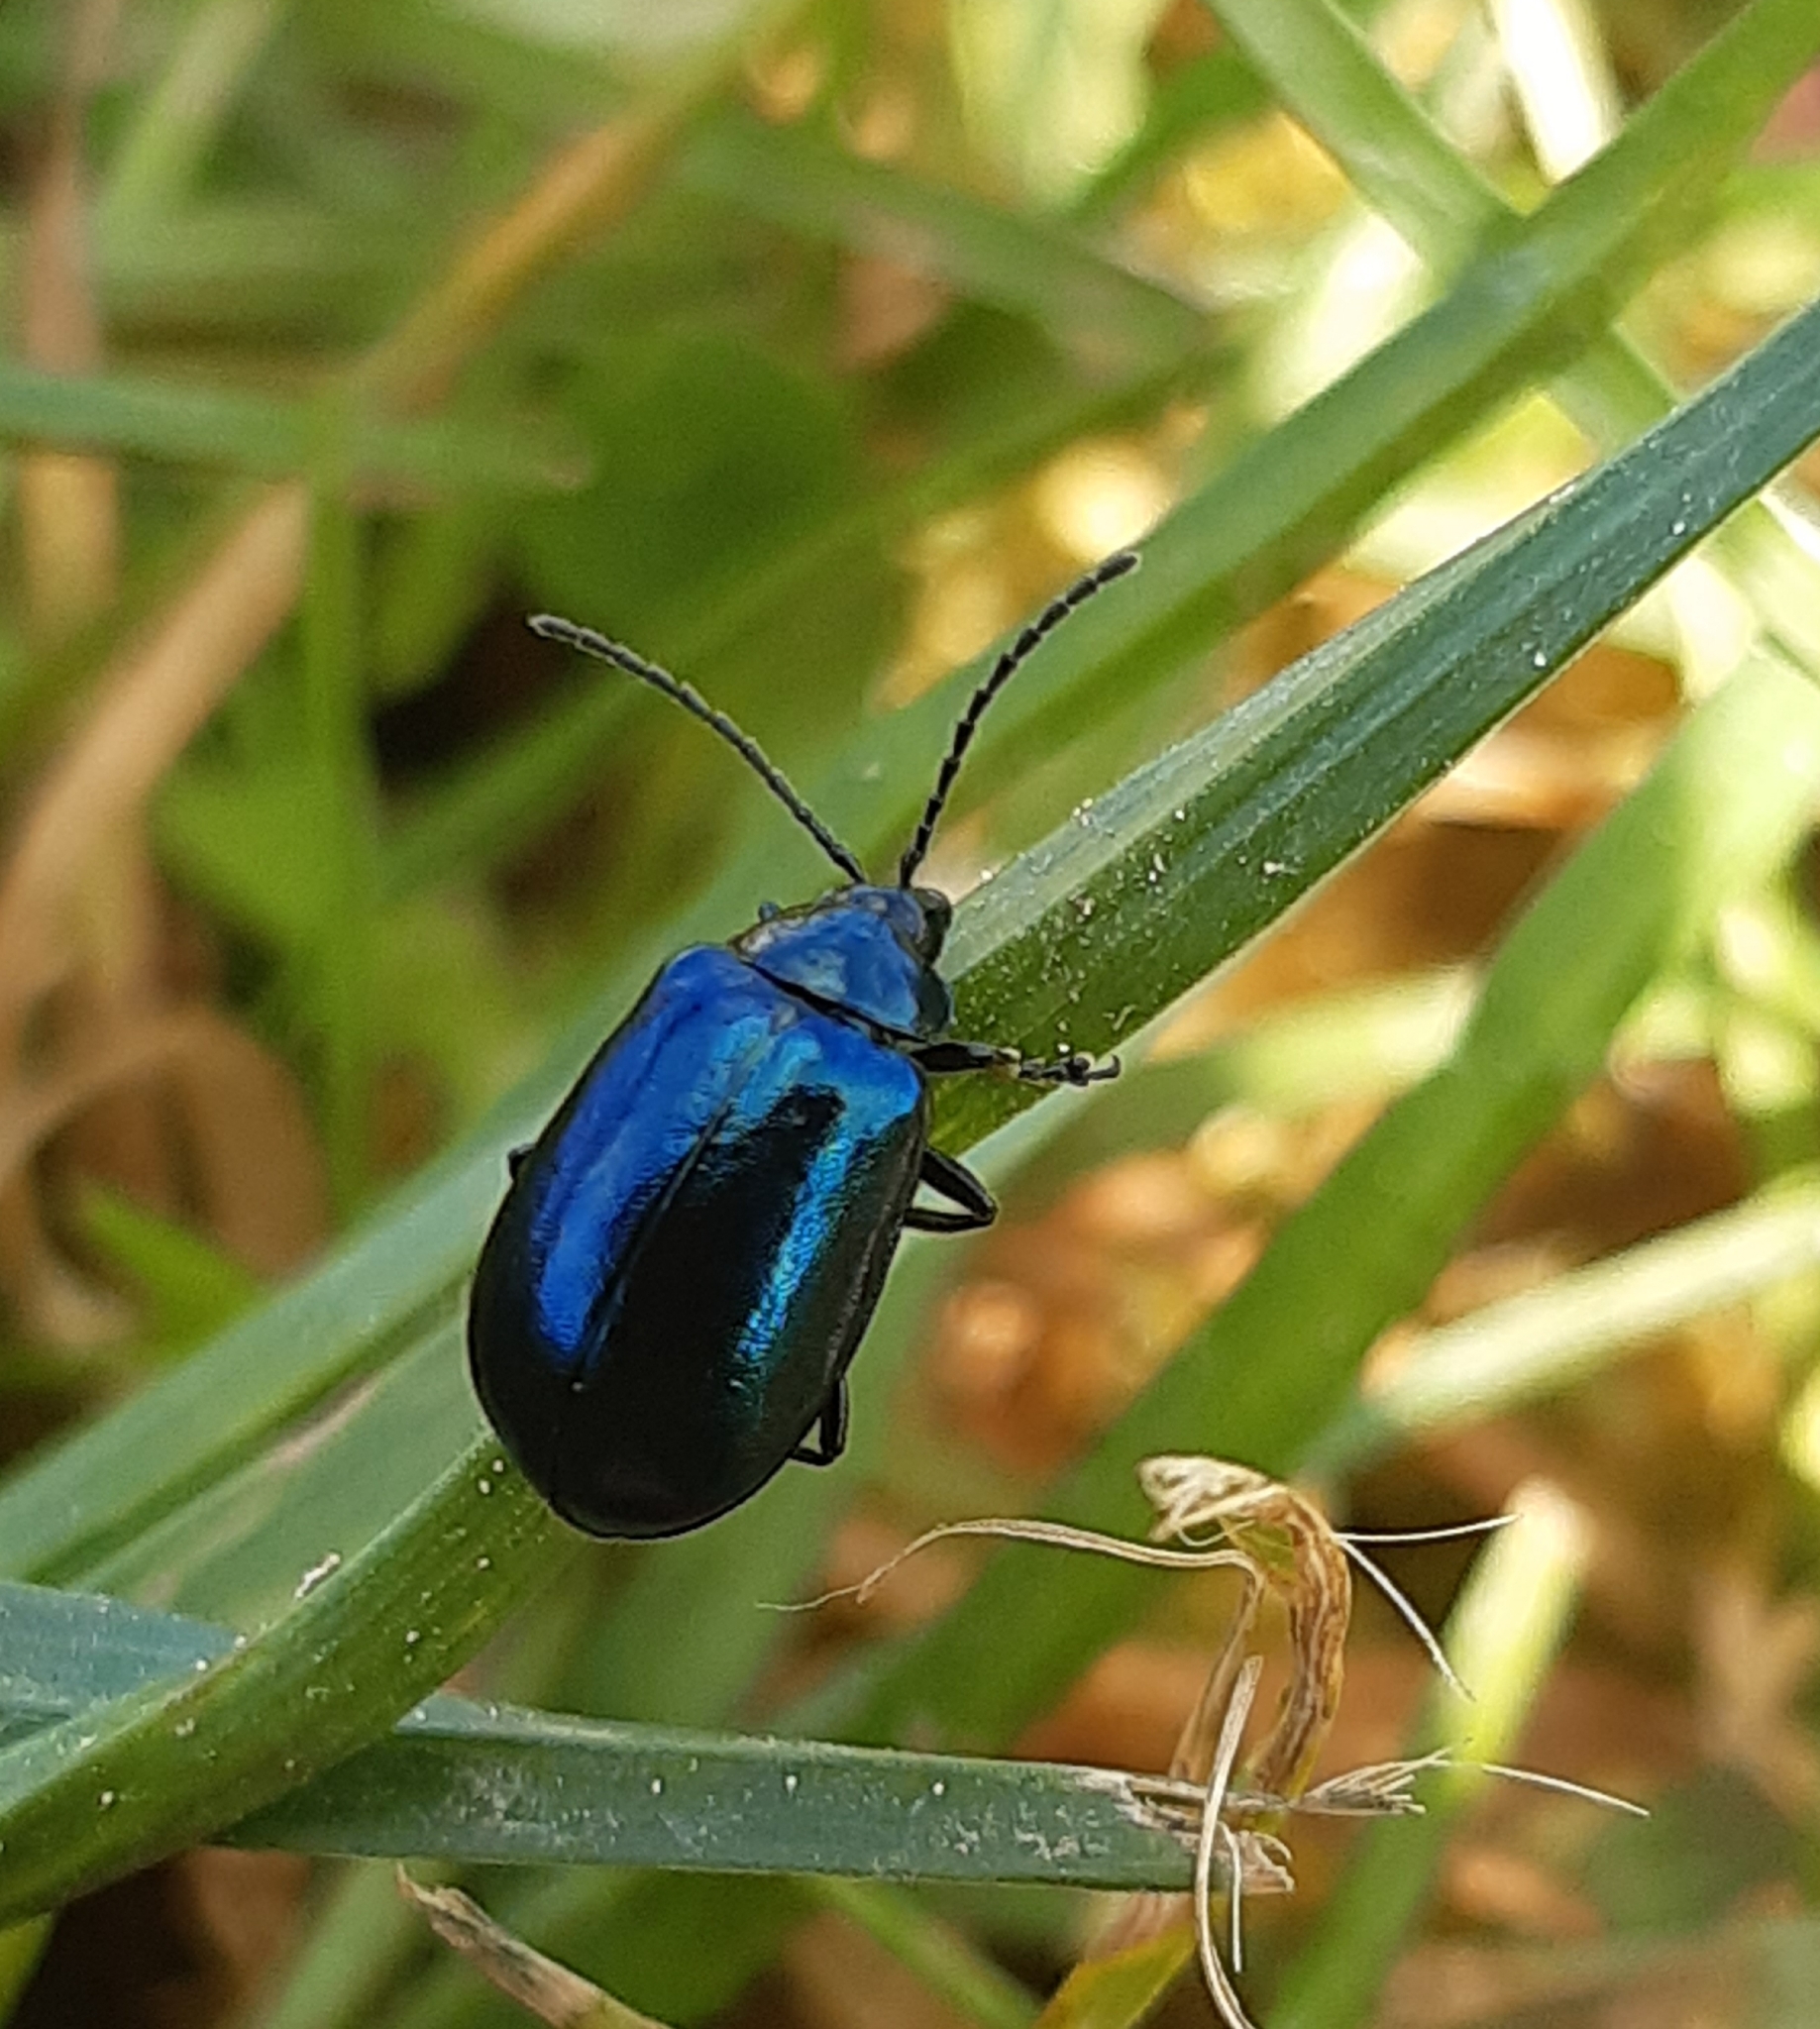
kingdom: Animalia
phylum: Arthropoda
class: Insecta
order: Coleoptera
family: Chrysomelidae
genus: Agelastica
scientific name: Agelastica alni
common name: Alder leaf beetle
